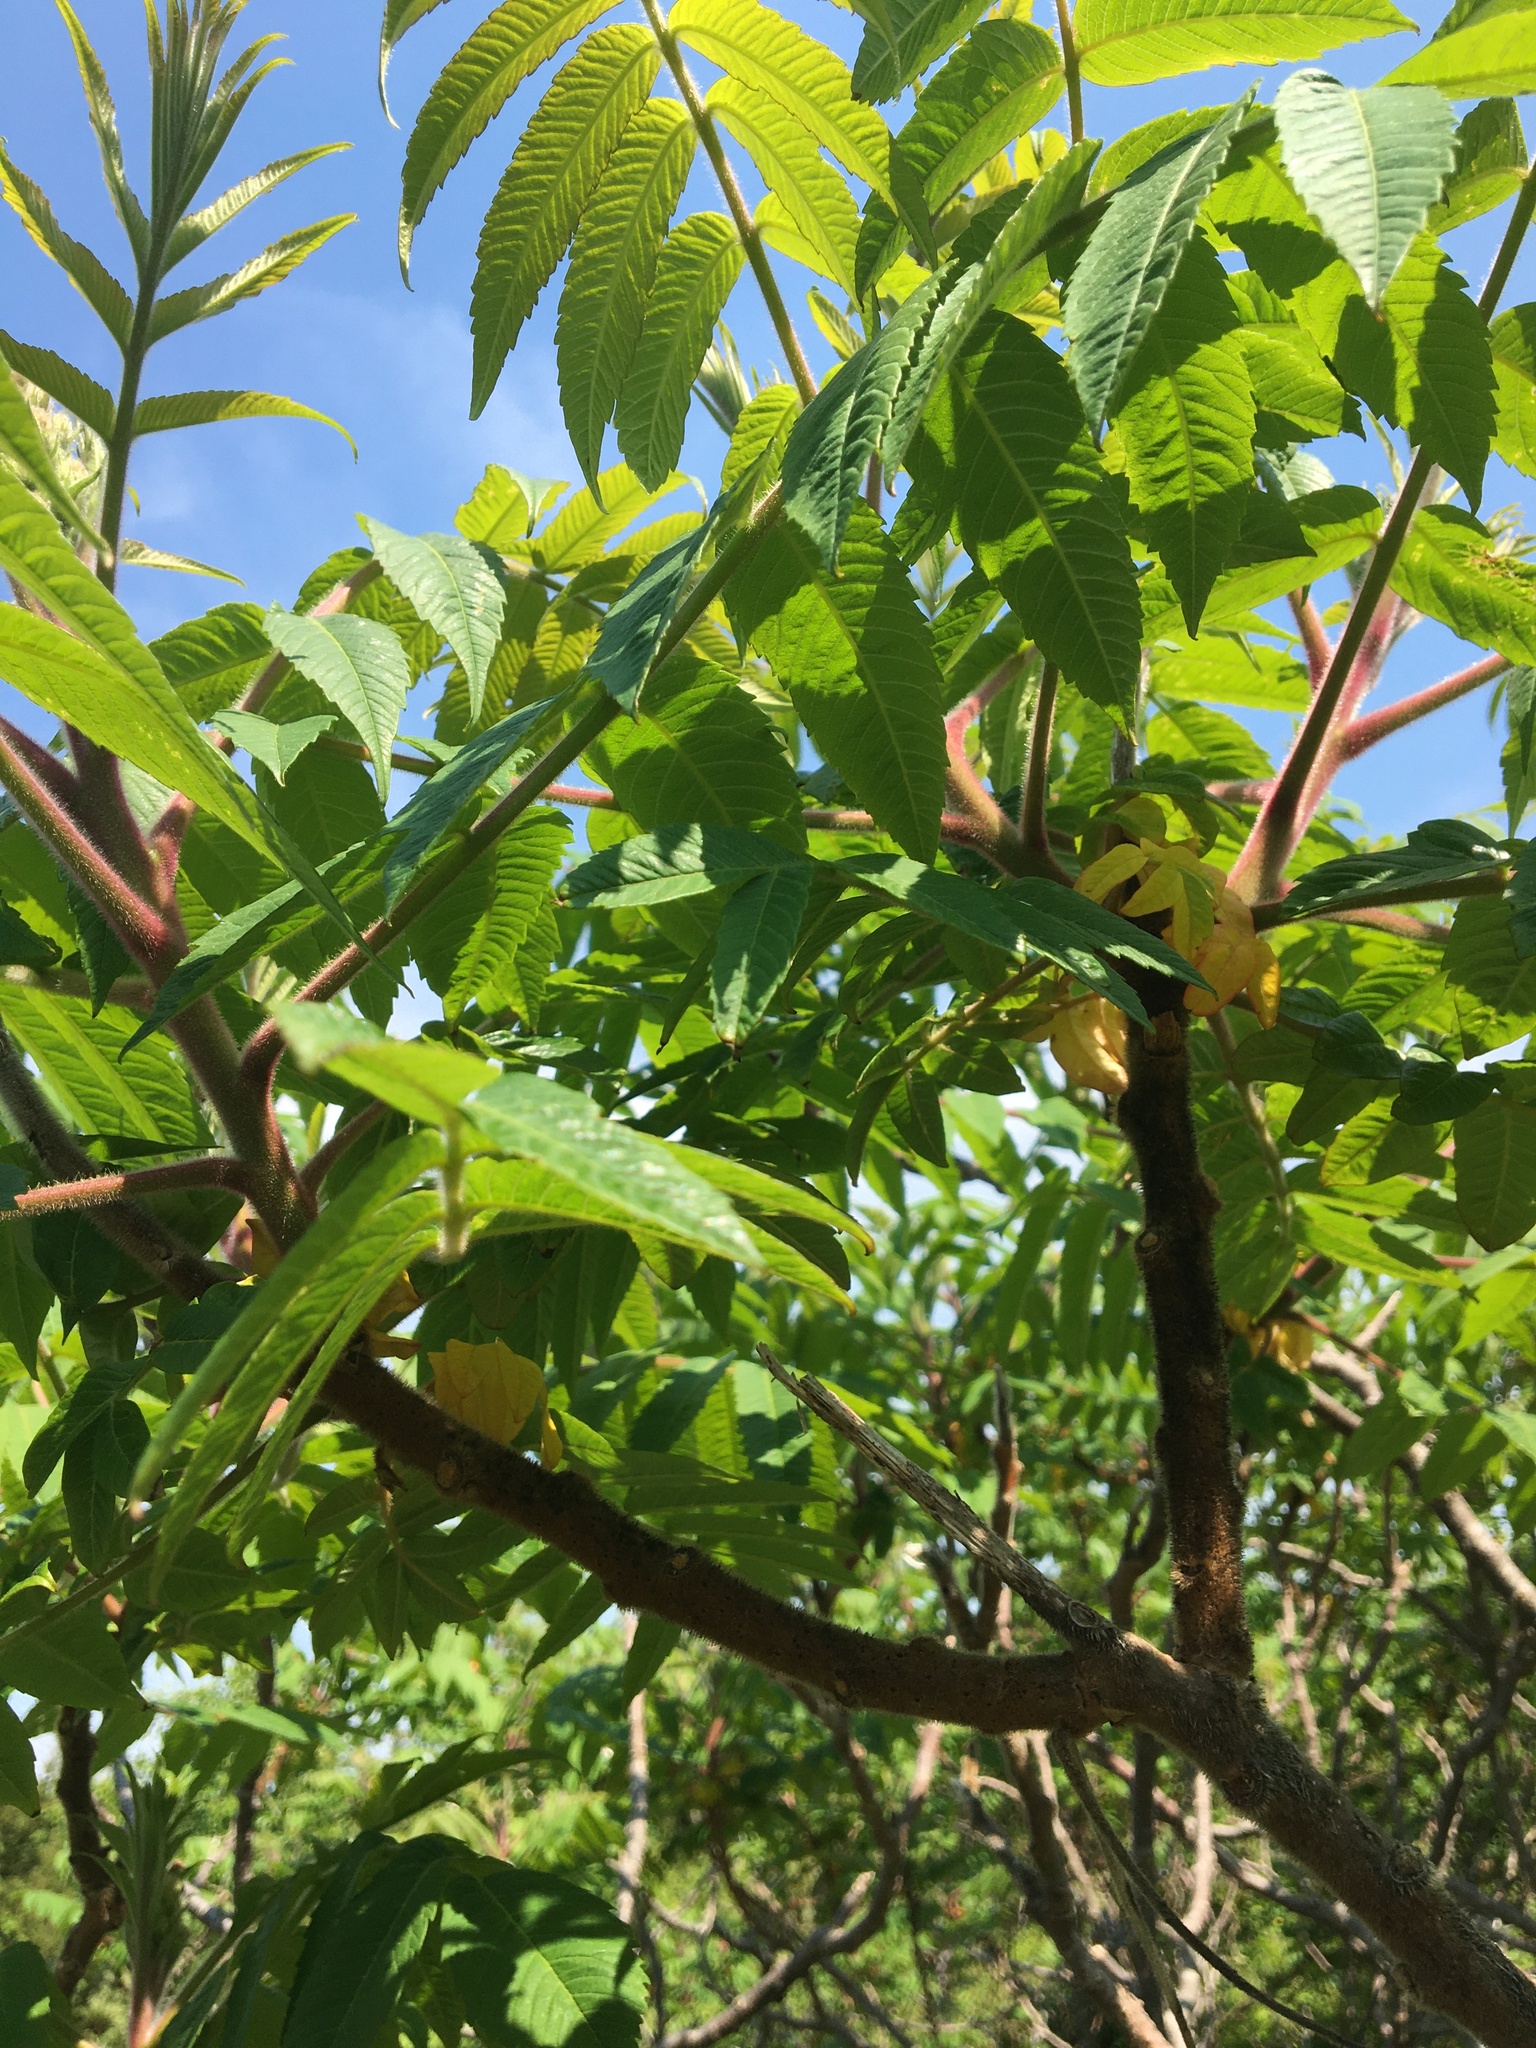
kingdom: Plantae
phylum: Tracheophyta
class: Magnoliopsida
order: Sapindales
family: Anacardiaceae
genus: Rhus
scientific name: Rhus typhina
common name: Staghorn sumac
